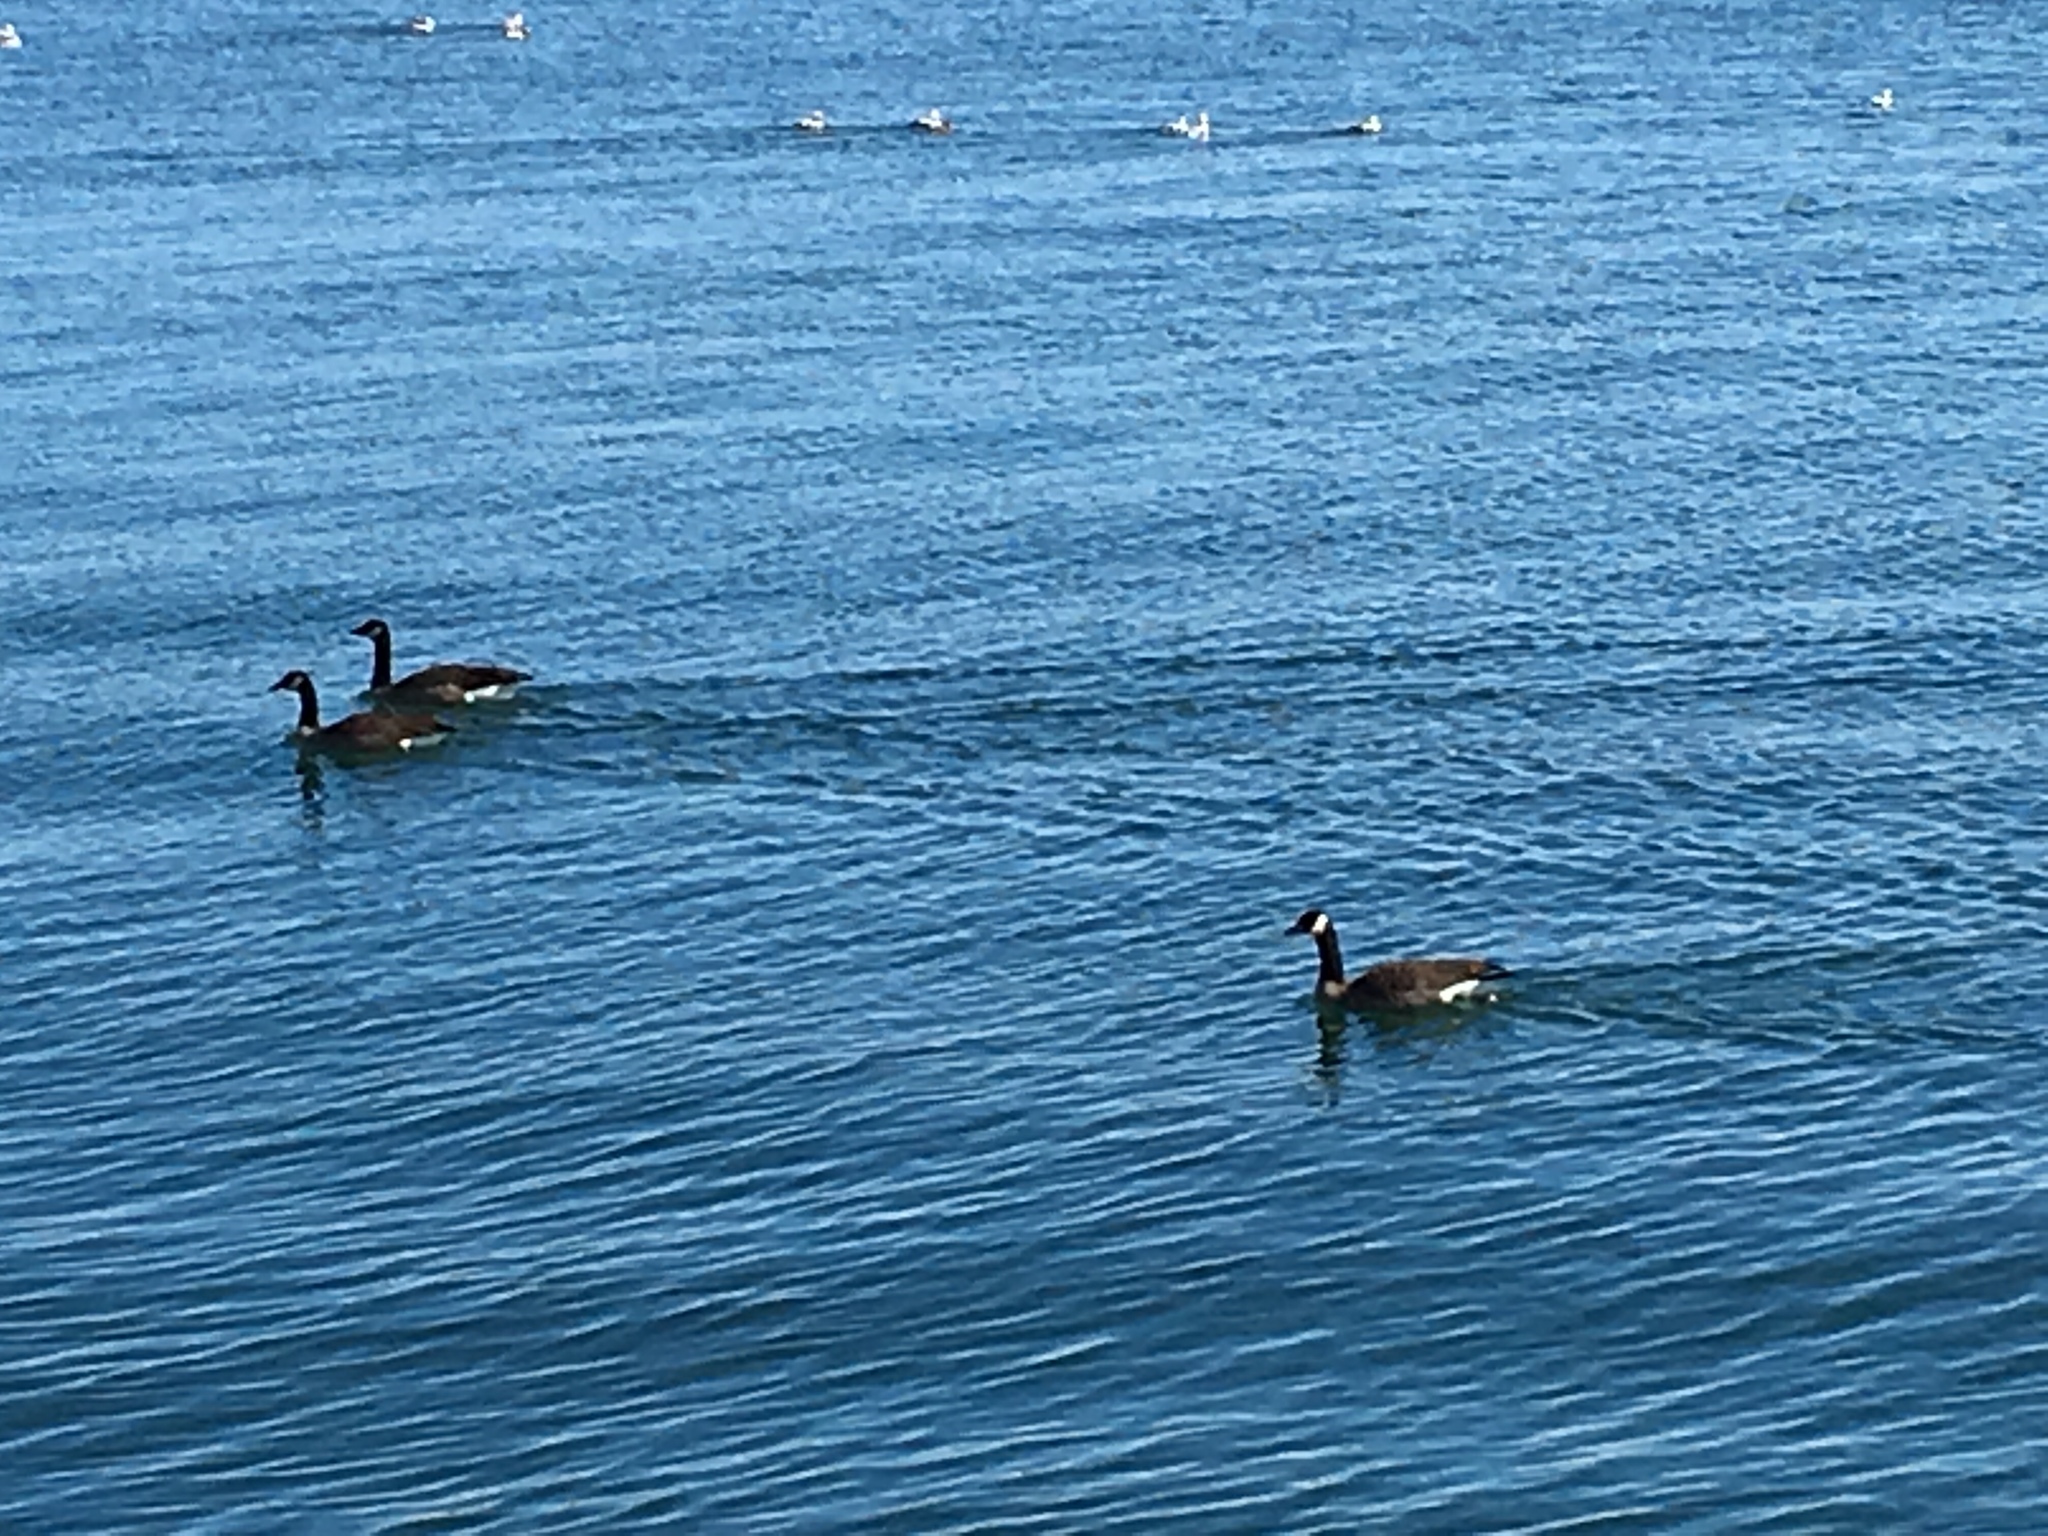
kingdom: Animalia
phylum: Chordata
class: Aves
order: Anseriformes
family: Anatidae
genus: Branta
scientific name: Branta canadensis
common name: Canada goose
